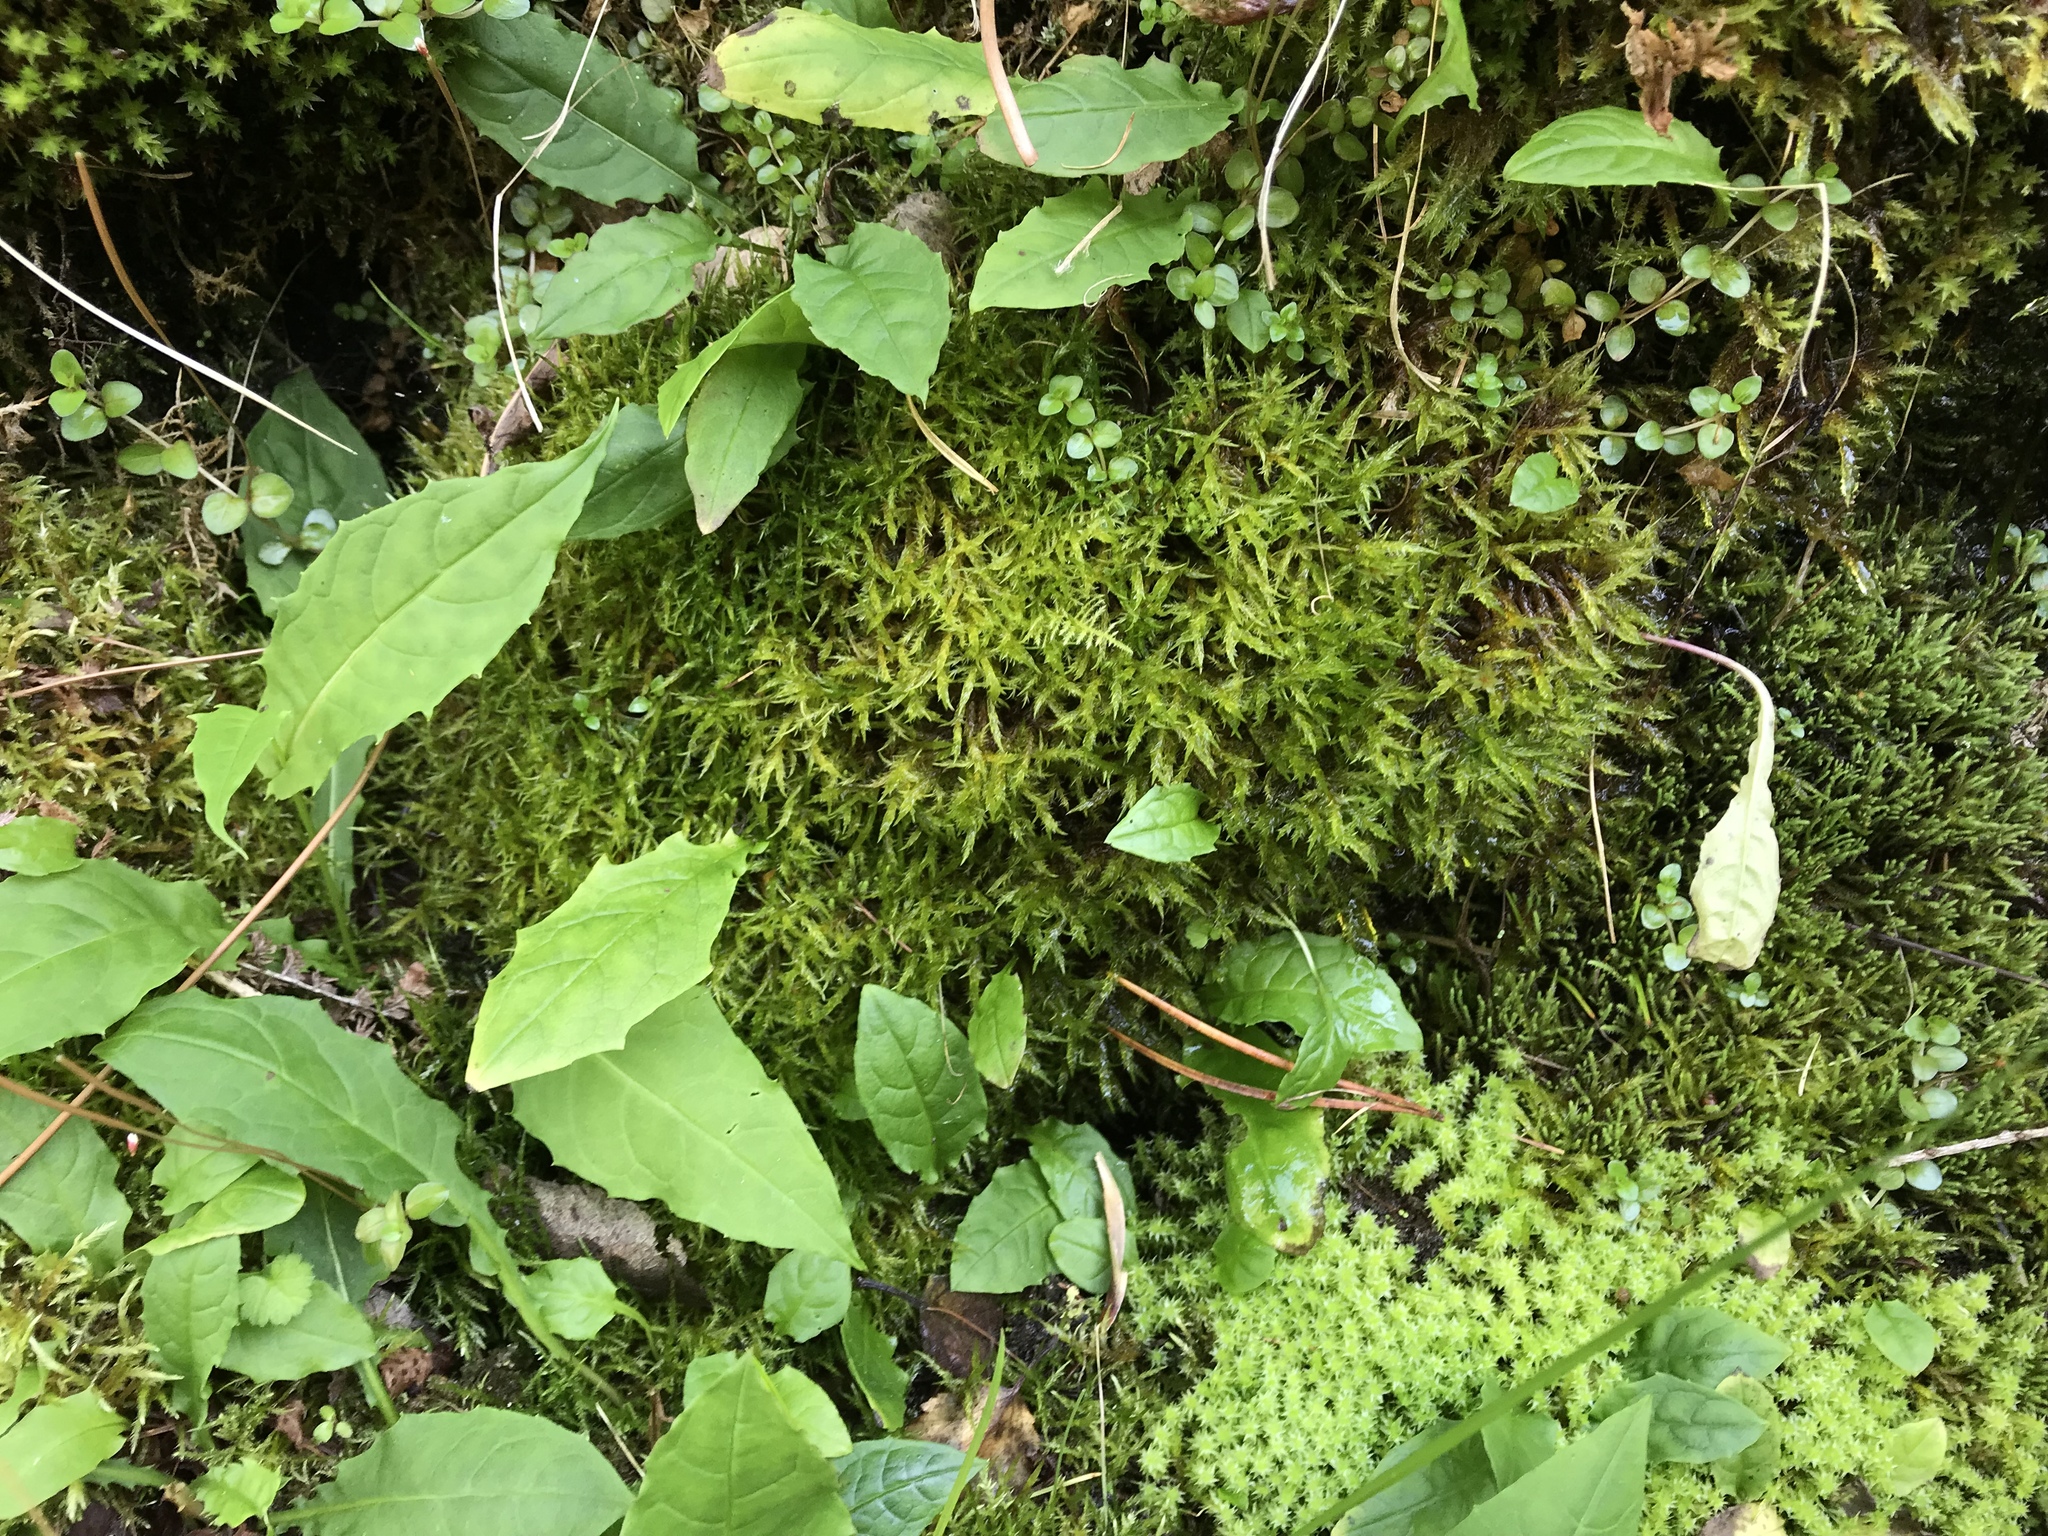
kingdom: Plantae
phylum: Bryophyta
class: Bryopsida
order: Hypnales
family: Pylaisiaceae
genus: Calliergonella
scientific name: Calliergonella cuspidata
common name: Common large wetland moss
